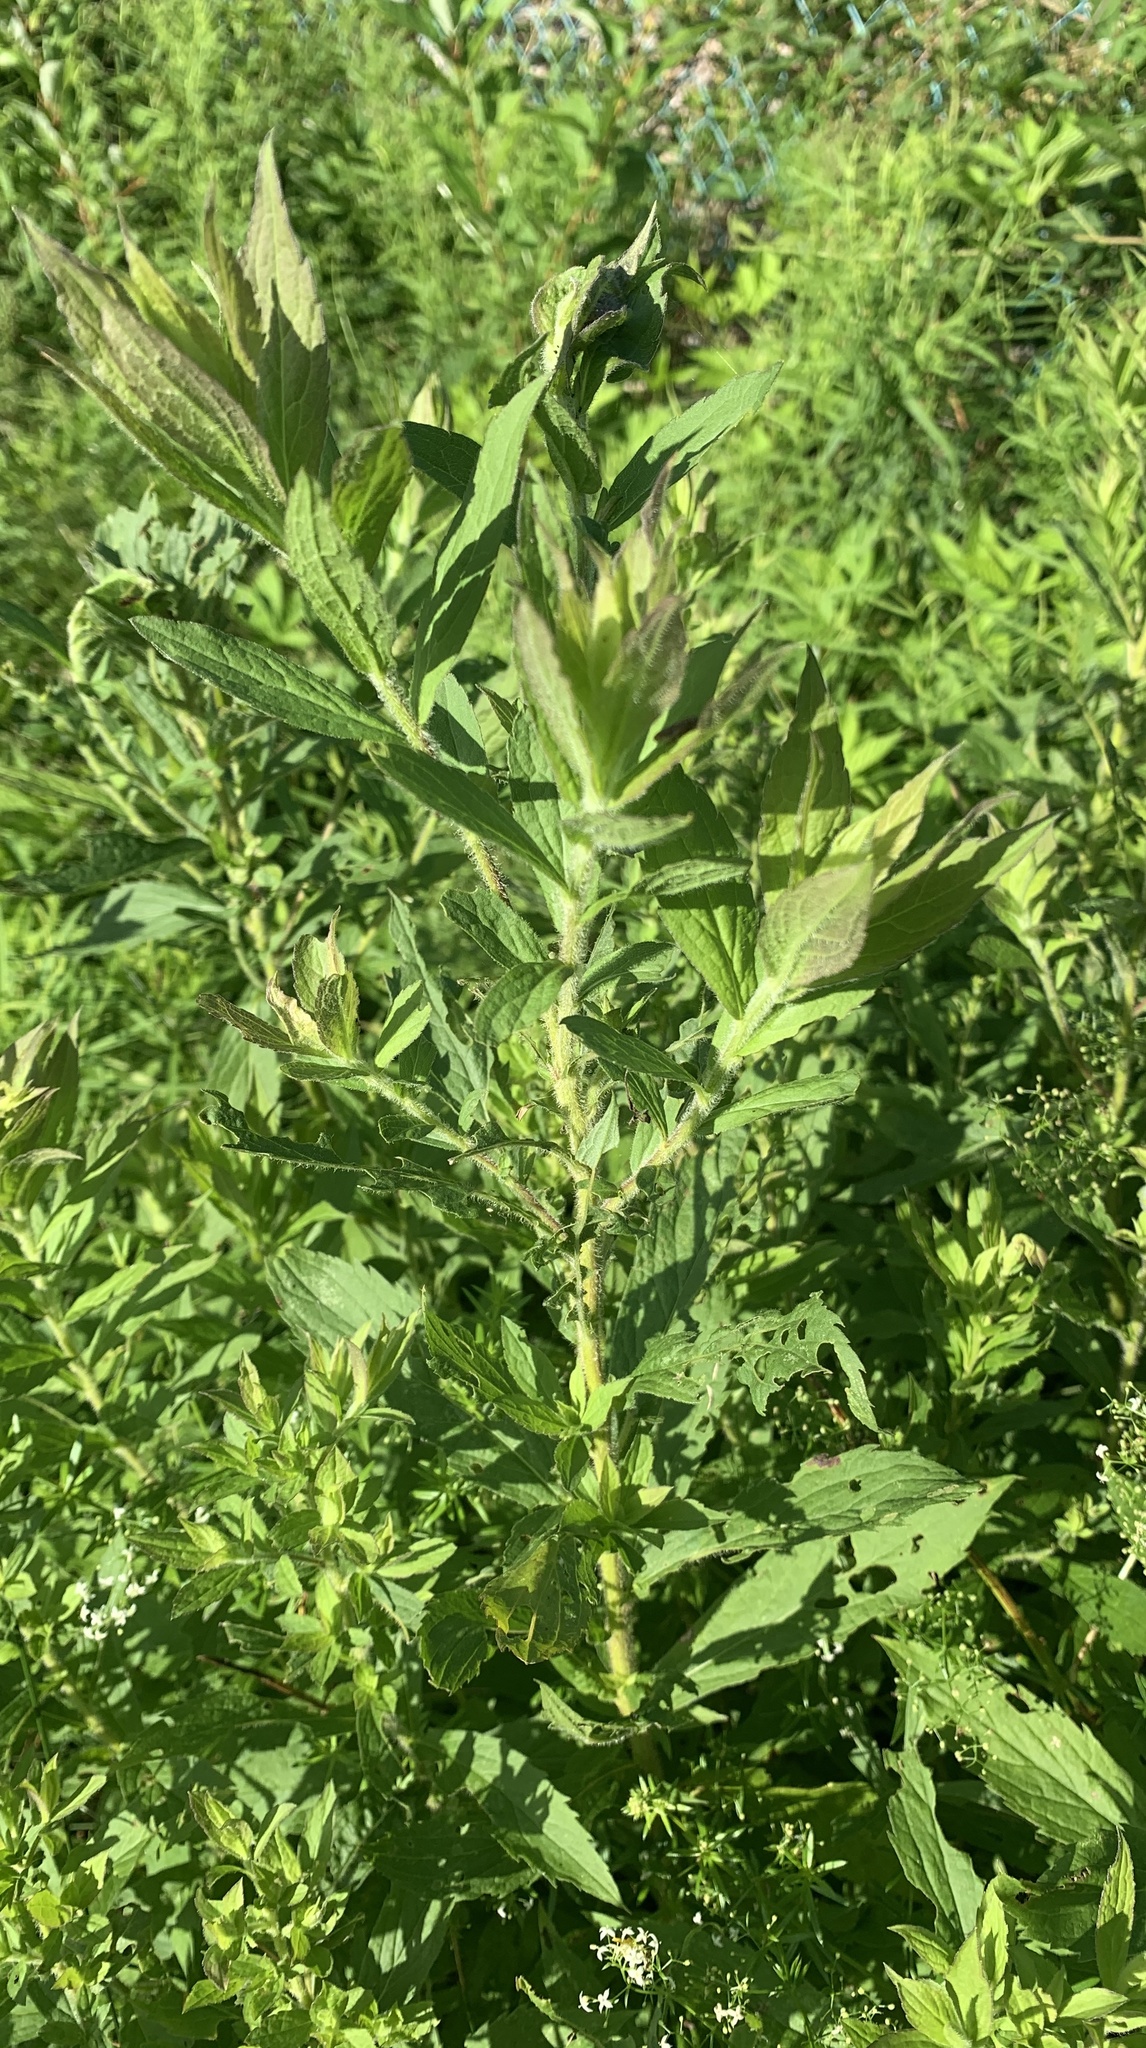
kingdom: Plantae
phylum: Tracheophyta
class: Magnoliopsida
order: Asterales
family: Asteraceae
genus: Solidago
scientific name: Solidago rugosa
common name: Rough-stemmed goldenrod
